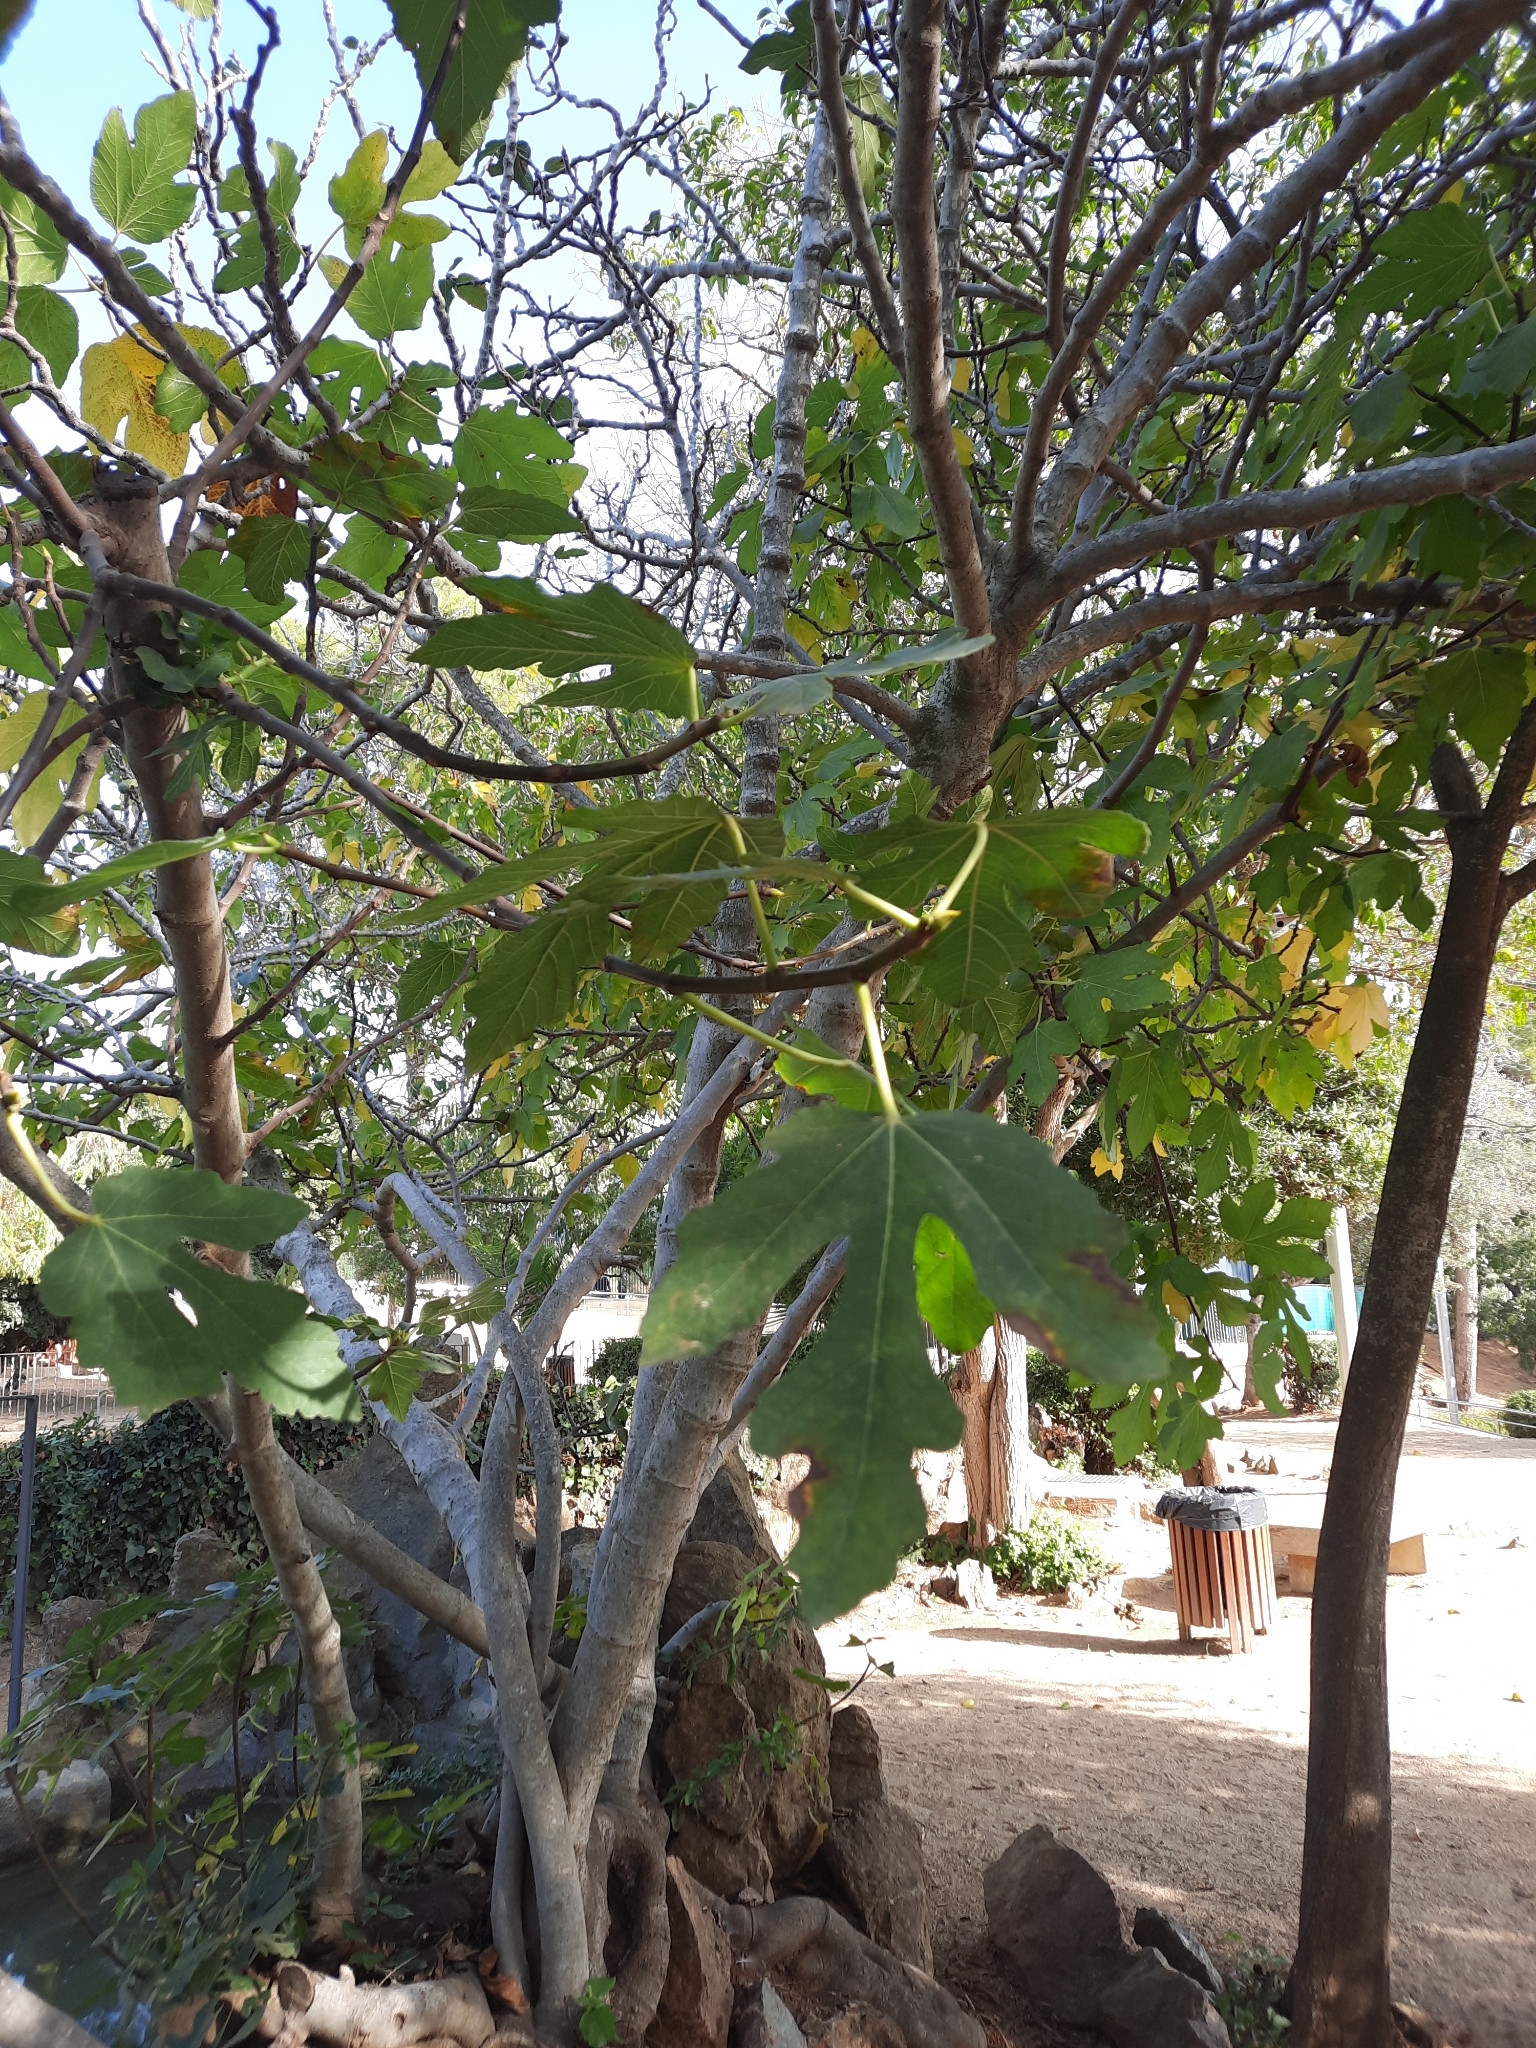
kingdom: Plantae
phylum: Tracheophyta
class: Magnoliopsida
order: Rosales
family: Moraceae
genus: Ficus
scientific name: Ficus carica
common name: Fig
